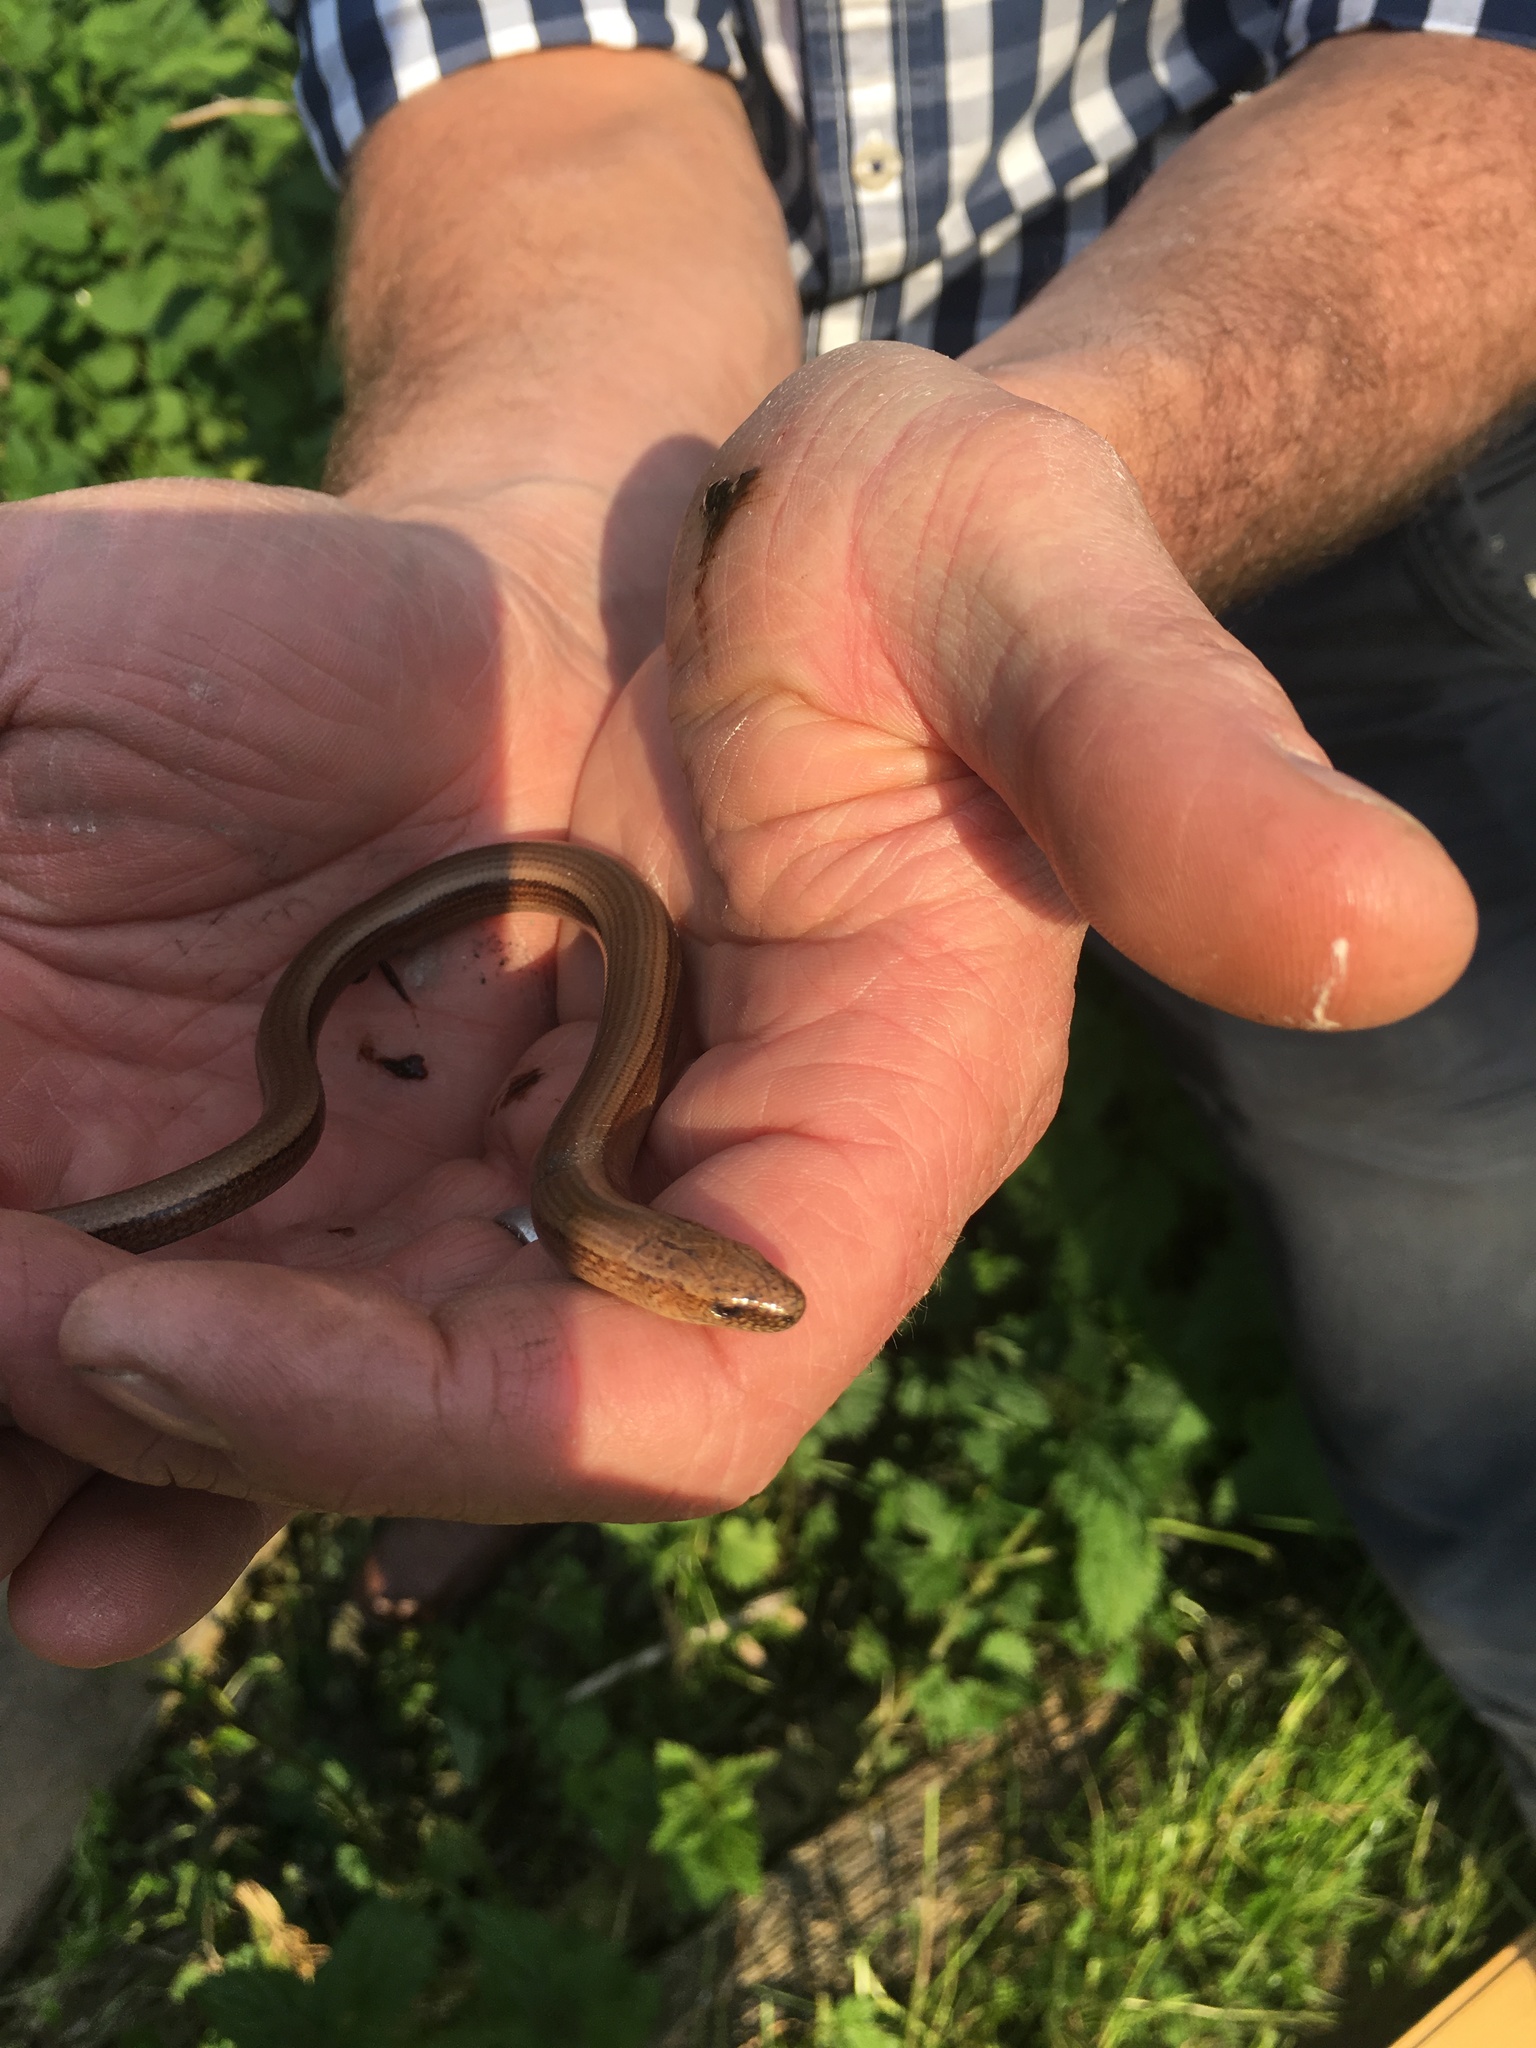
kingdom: Animalia
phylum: Chordata
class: Squamata
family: Anguidae
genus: Anguis
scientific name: Anguis fragilis
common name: Slow worm
